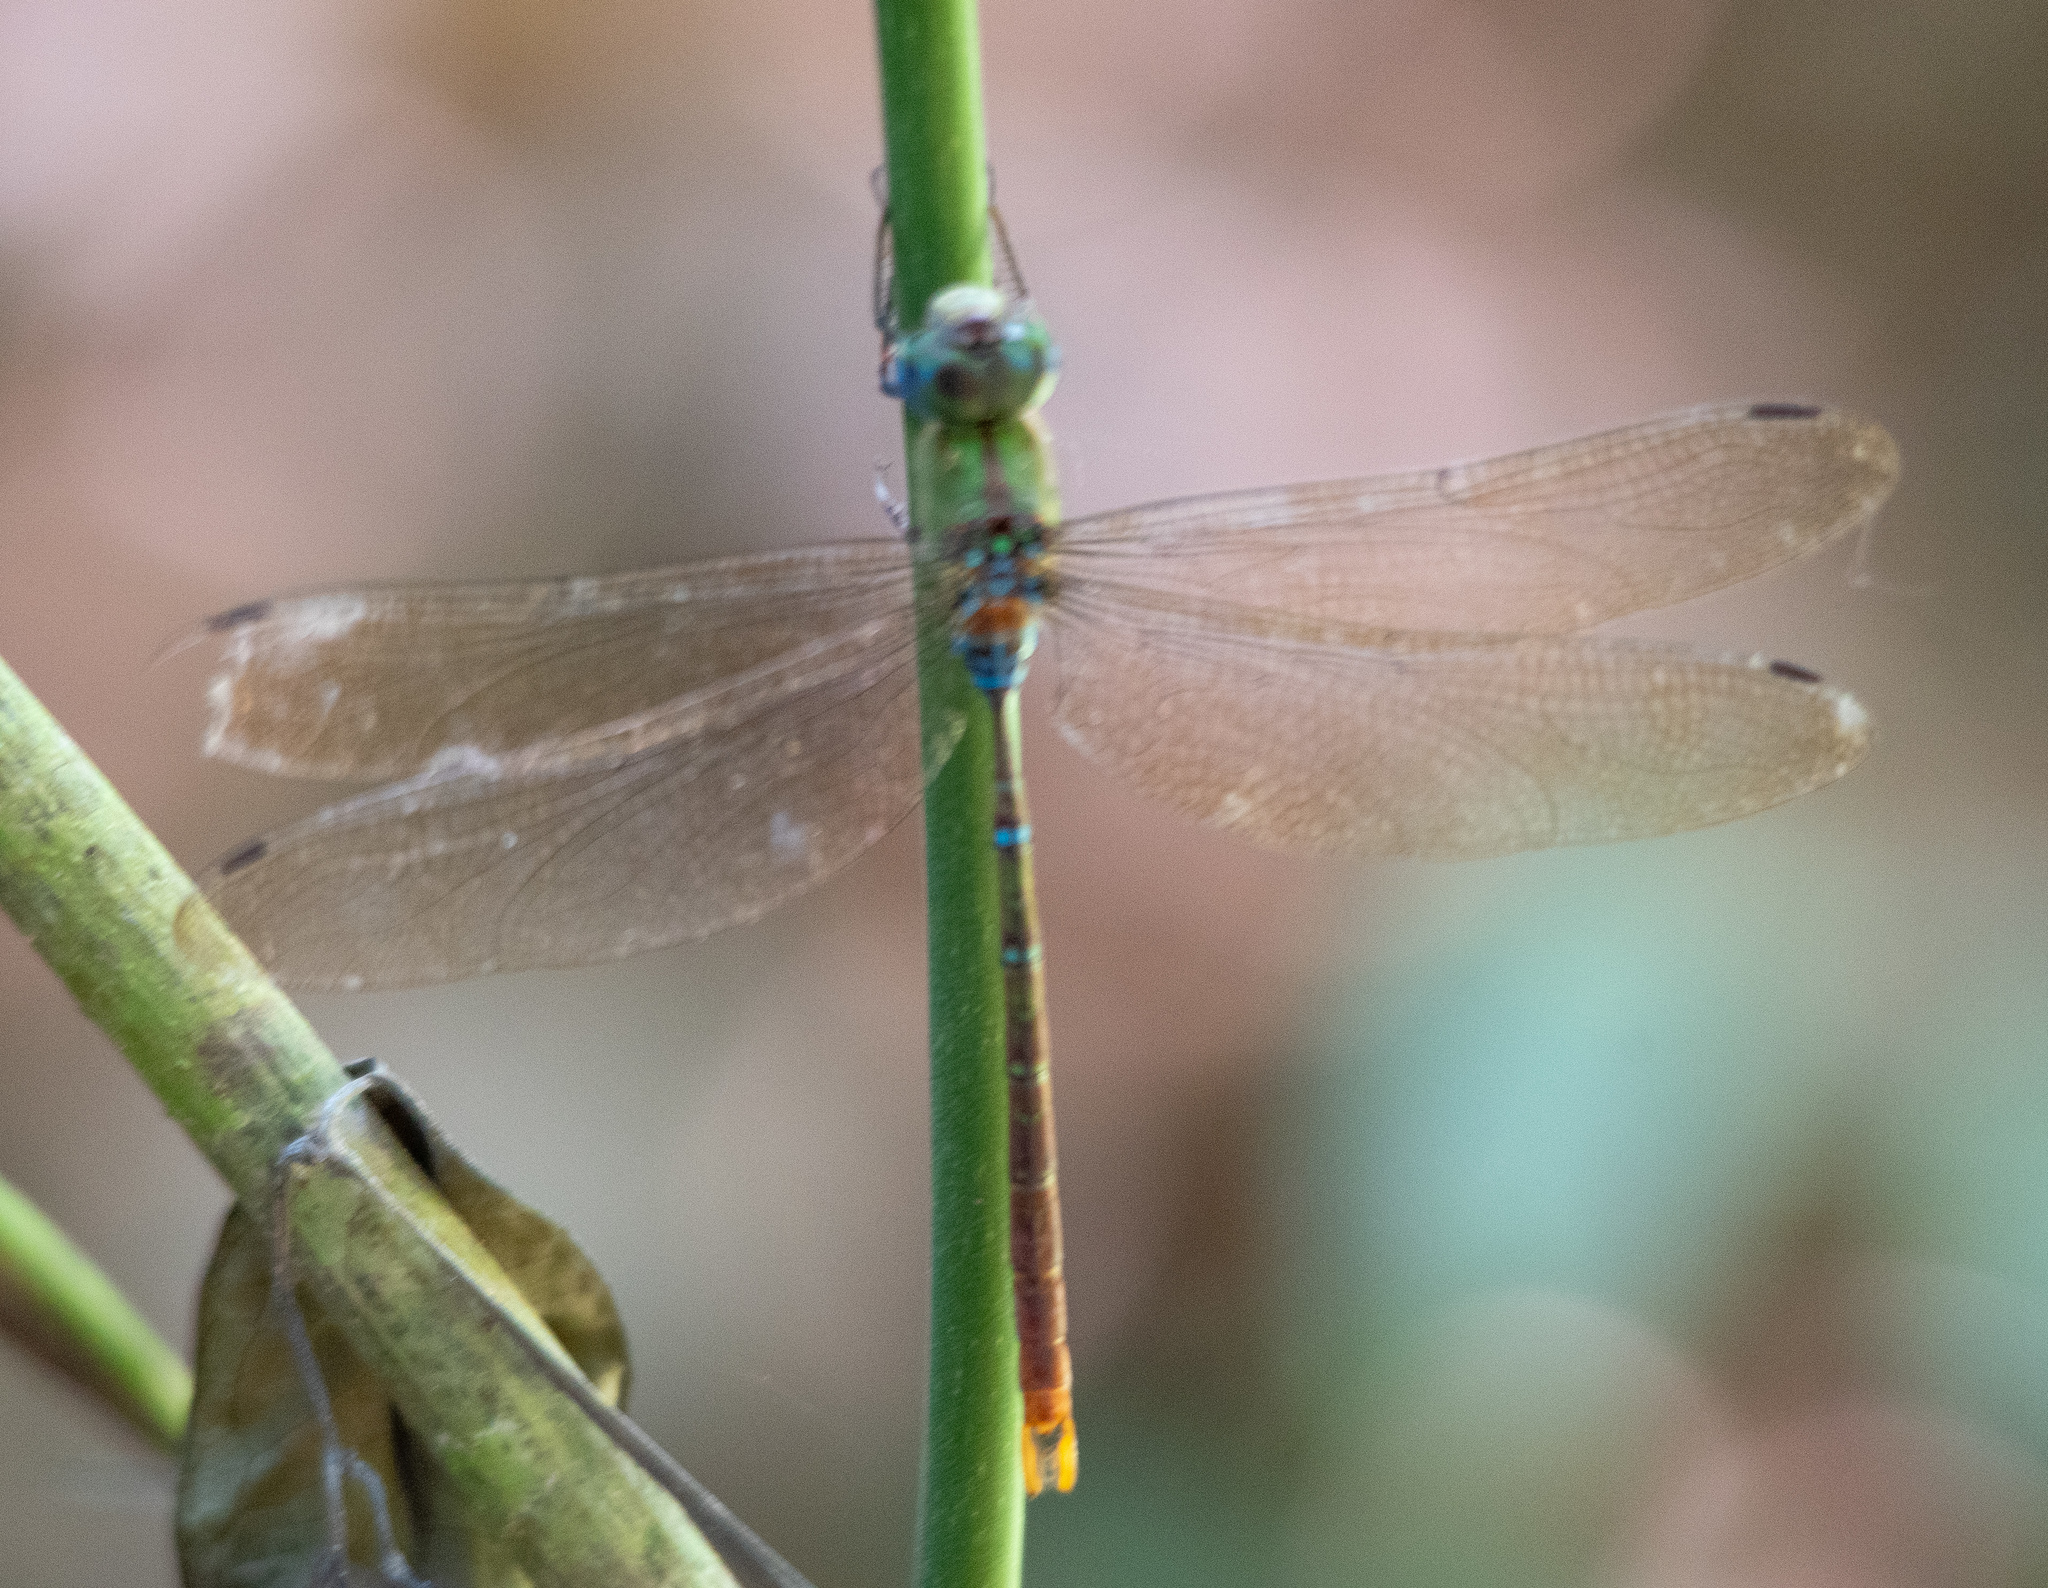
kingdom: Animalia
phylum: Arthropoda
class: Insecta
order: Odonata
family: Aeshnidae
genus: Gynacantha
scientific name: Gynacantha tibiata
